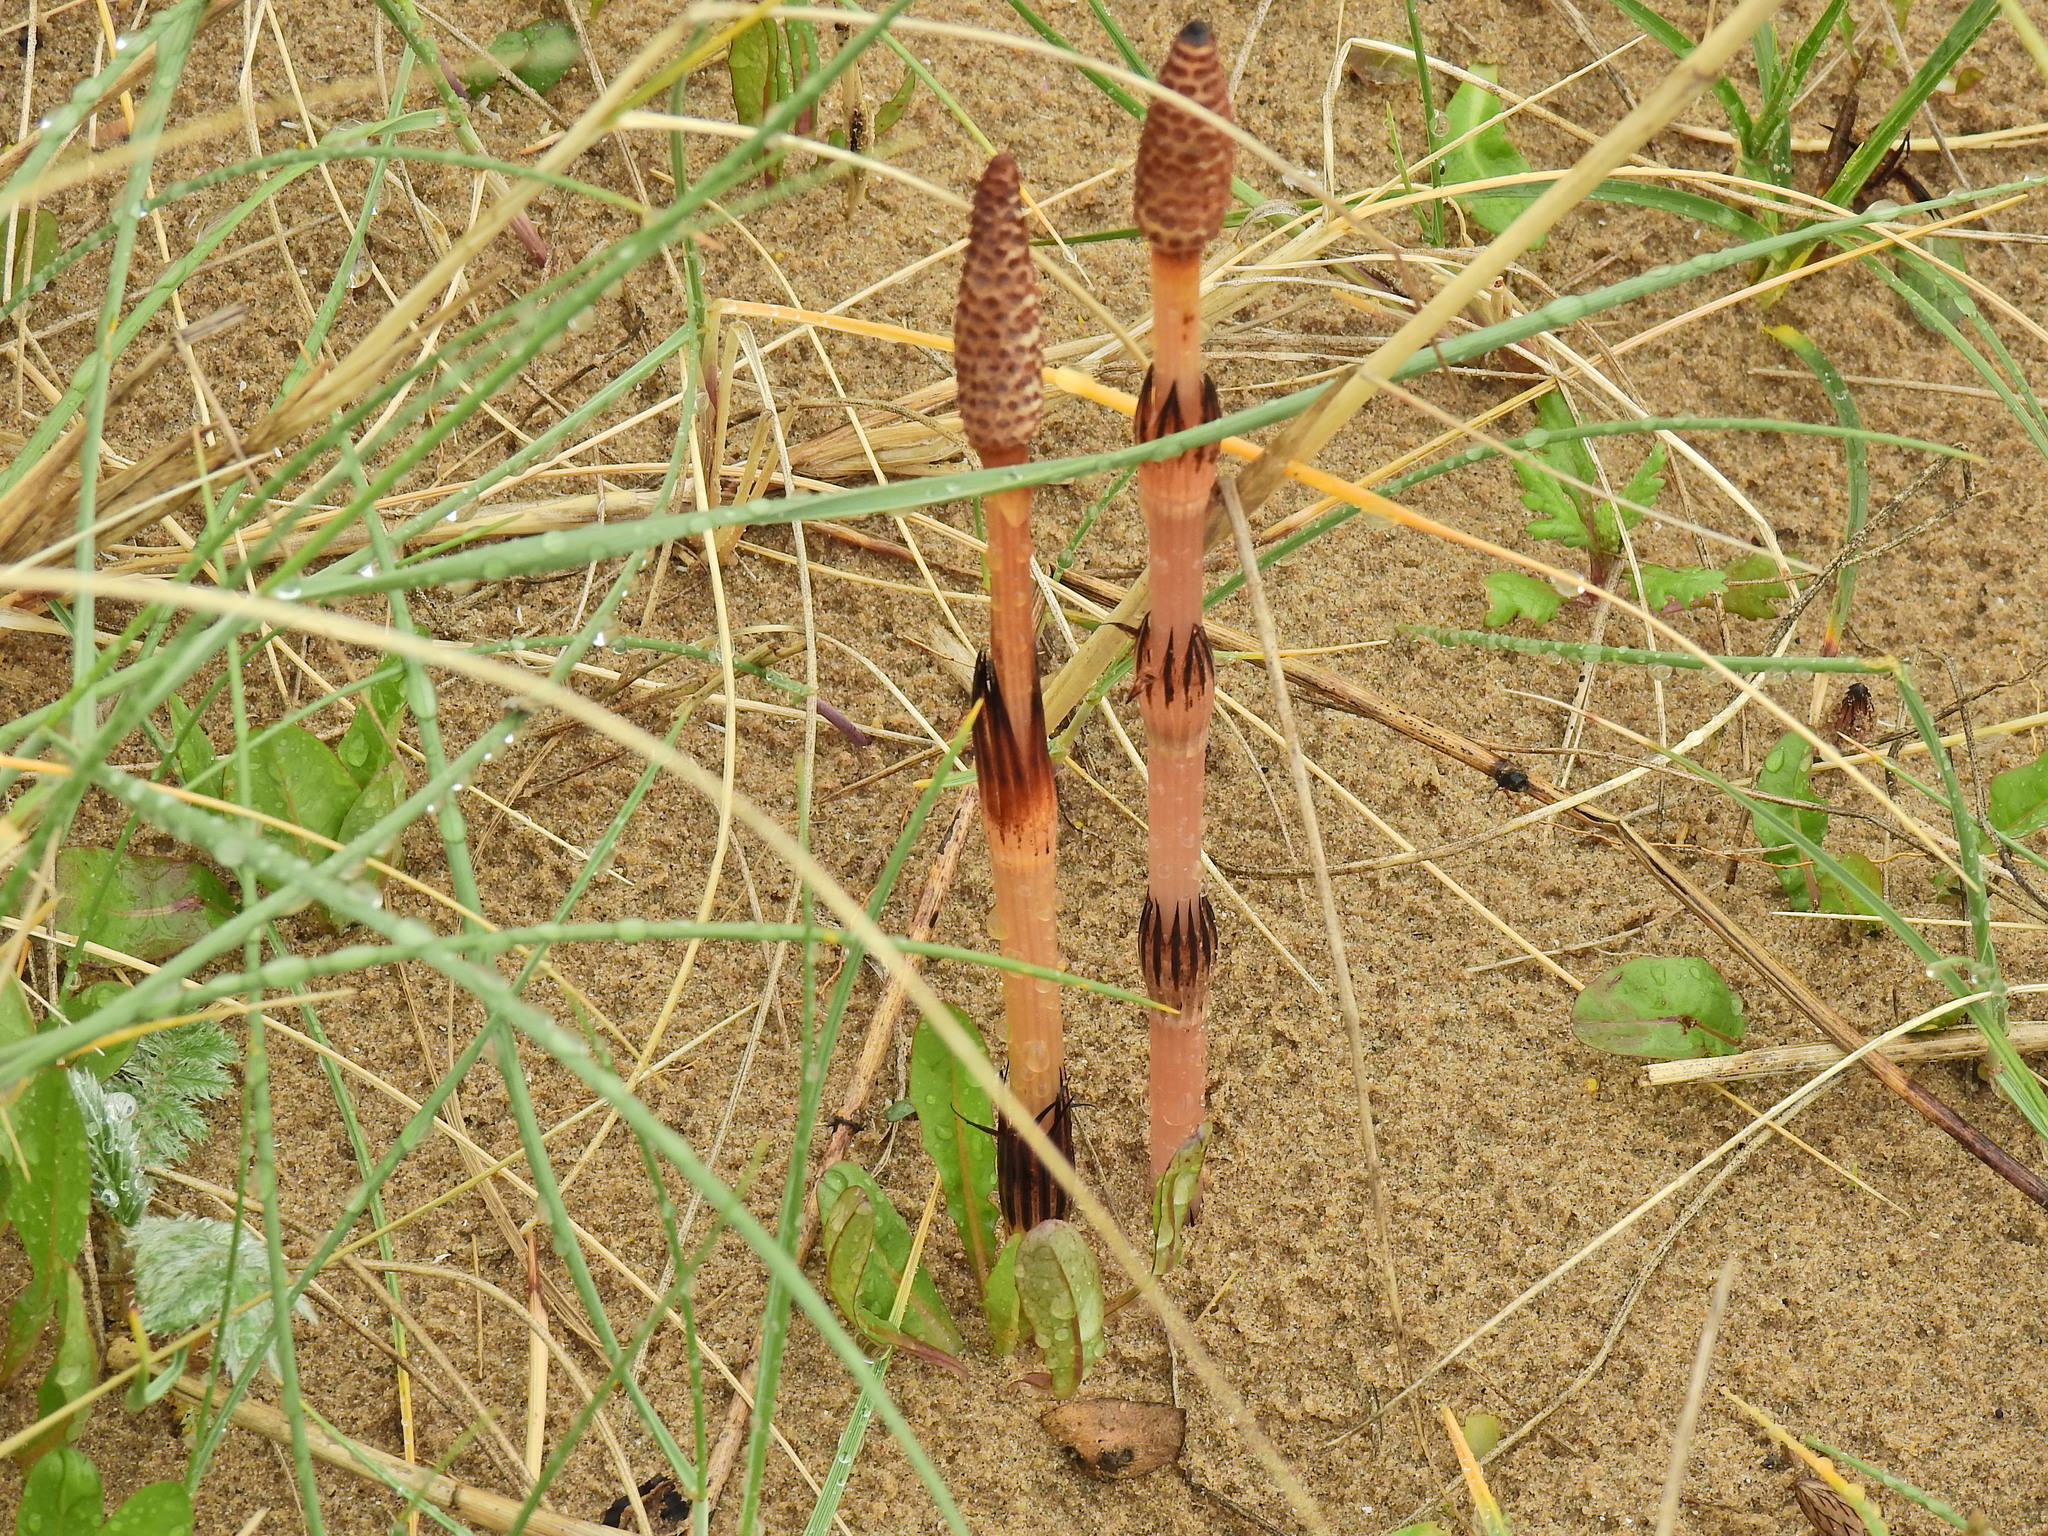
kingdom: Plantae
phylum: Tracheophyta
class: Polypodiopsida
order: Equisetales
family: Equisetaceae
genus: Equisetum
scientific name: Equisetum arvense
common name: Field horsetail
